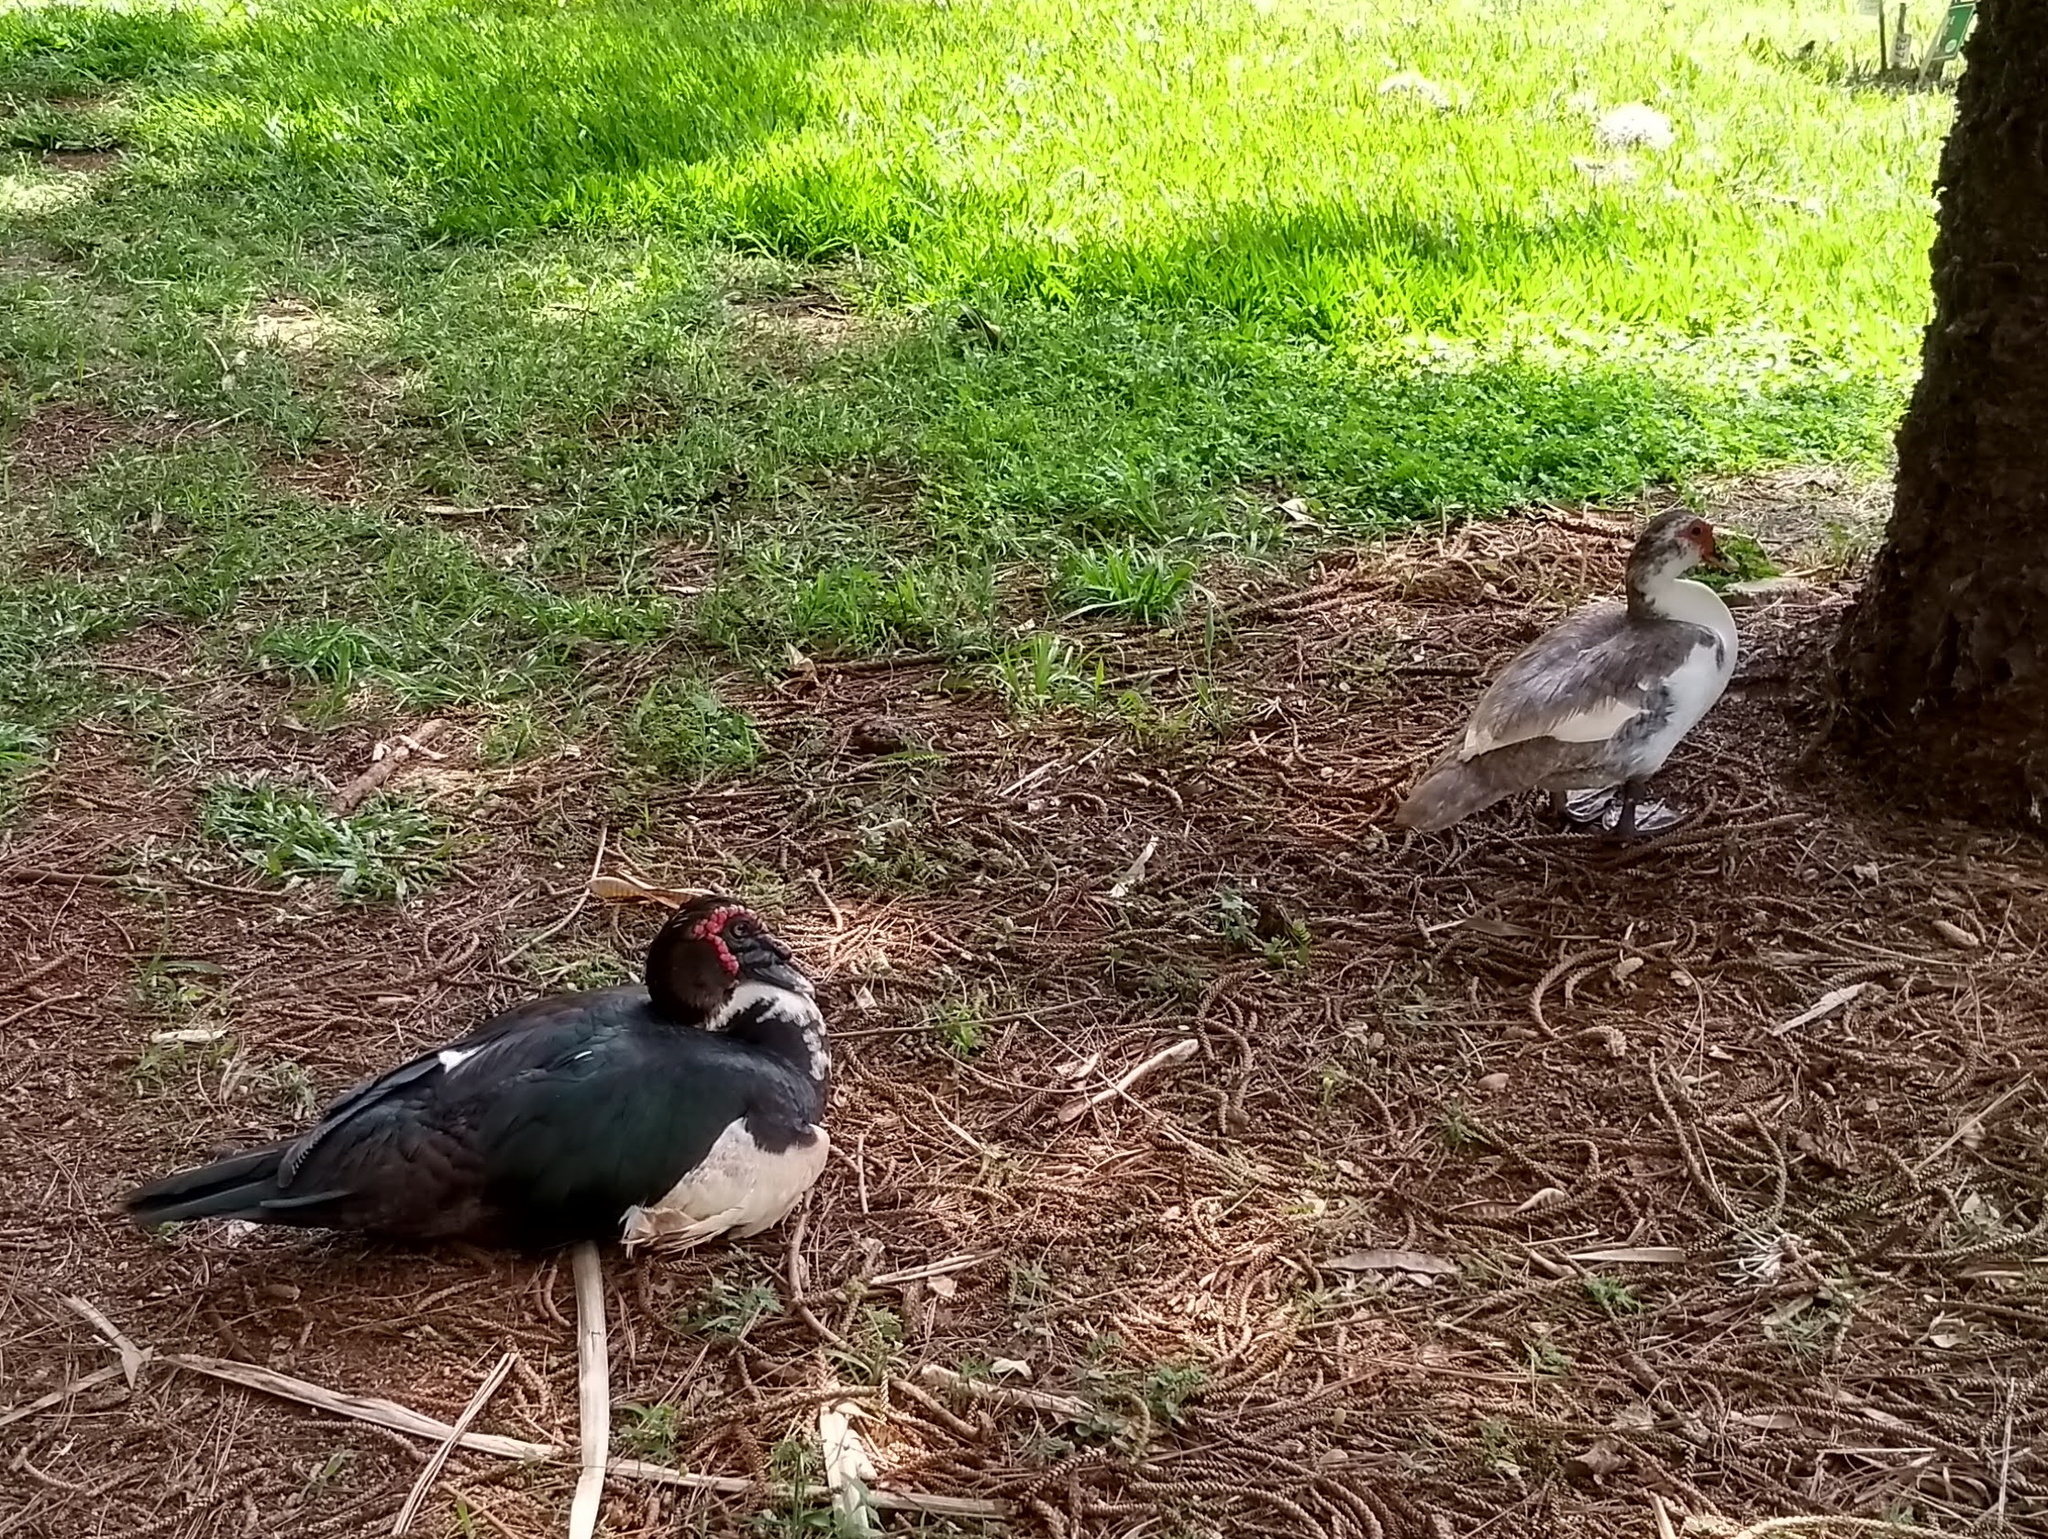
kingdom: Animalia
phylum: Chordata
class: Aves
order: Anseriformes
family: Anatidae
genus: Cairina
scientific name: Cairina moschata
